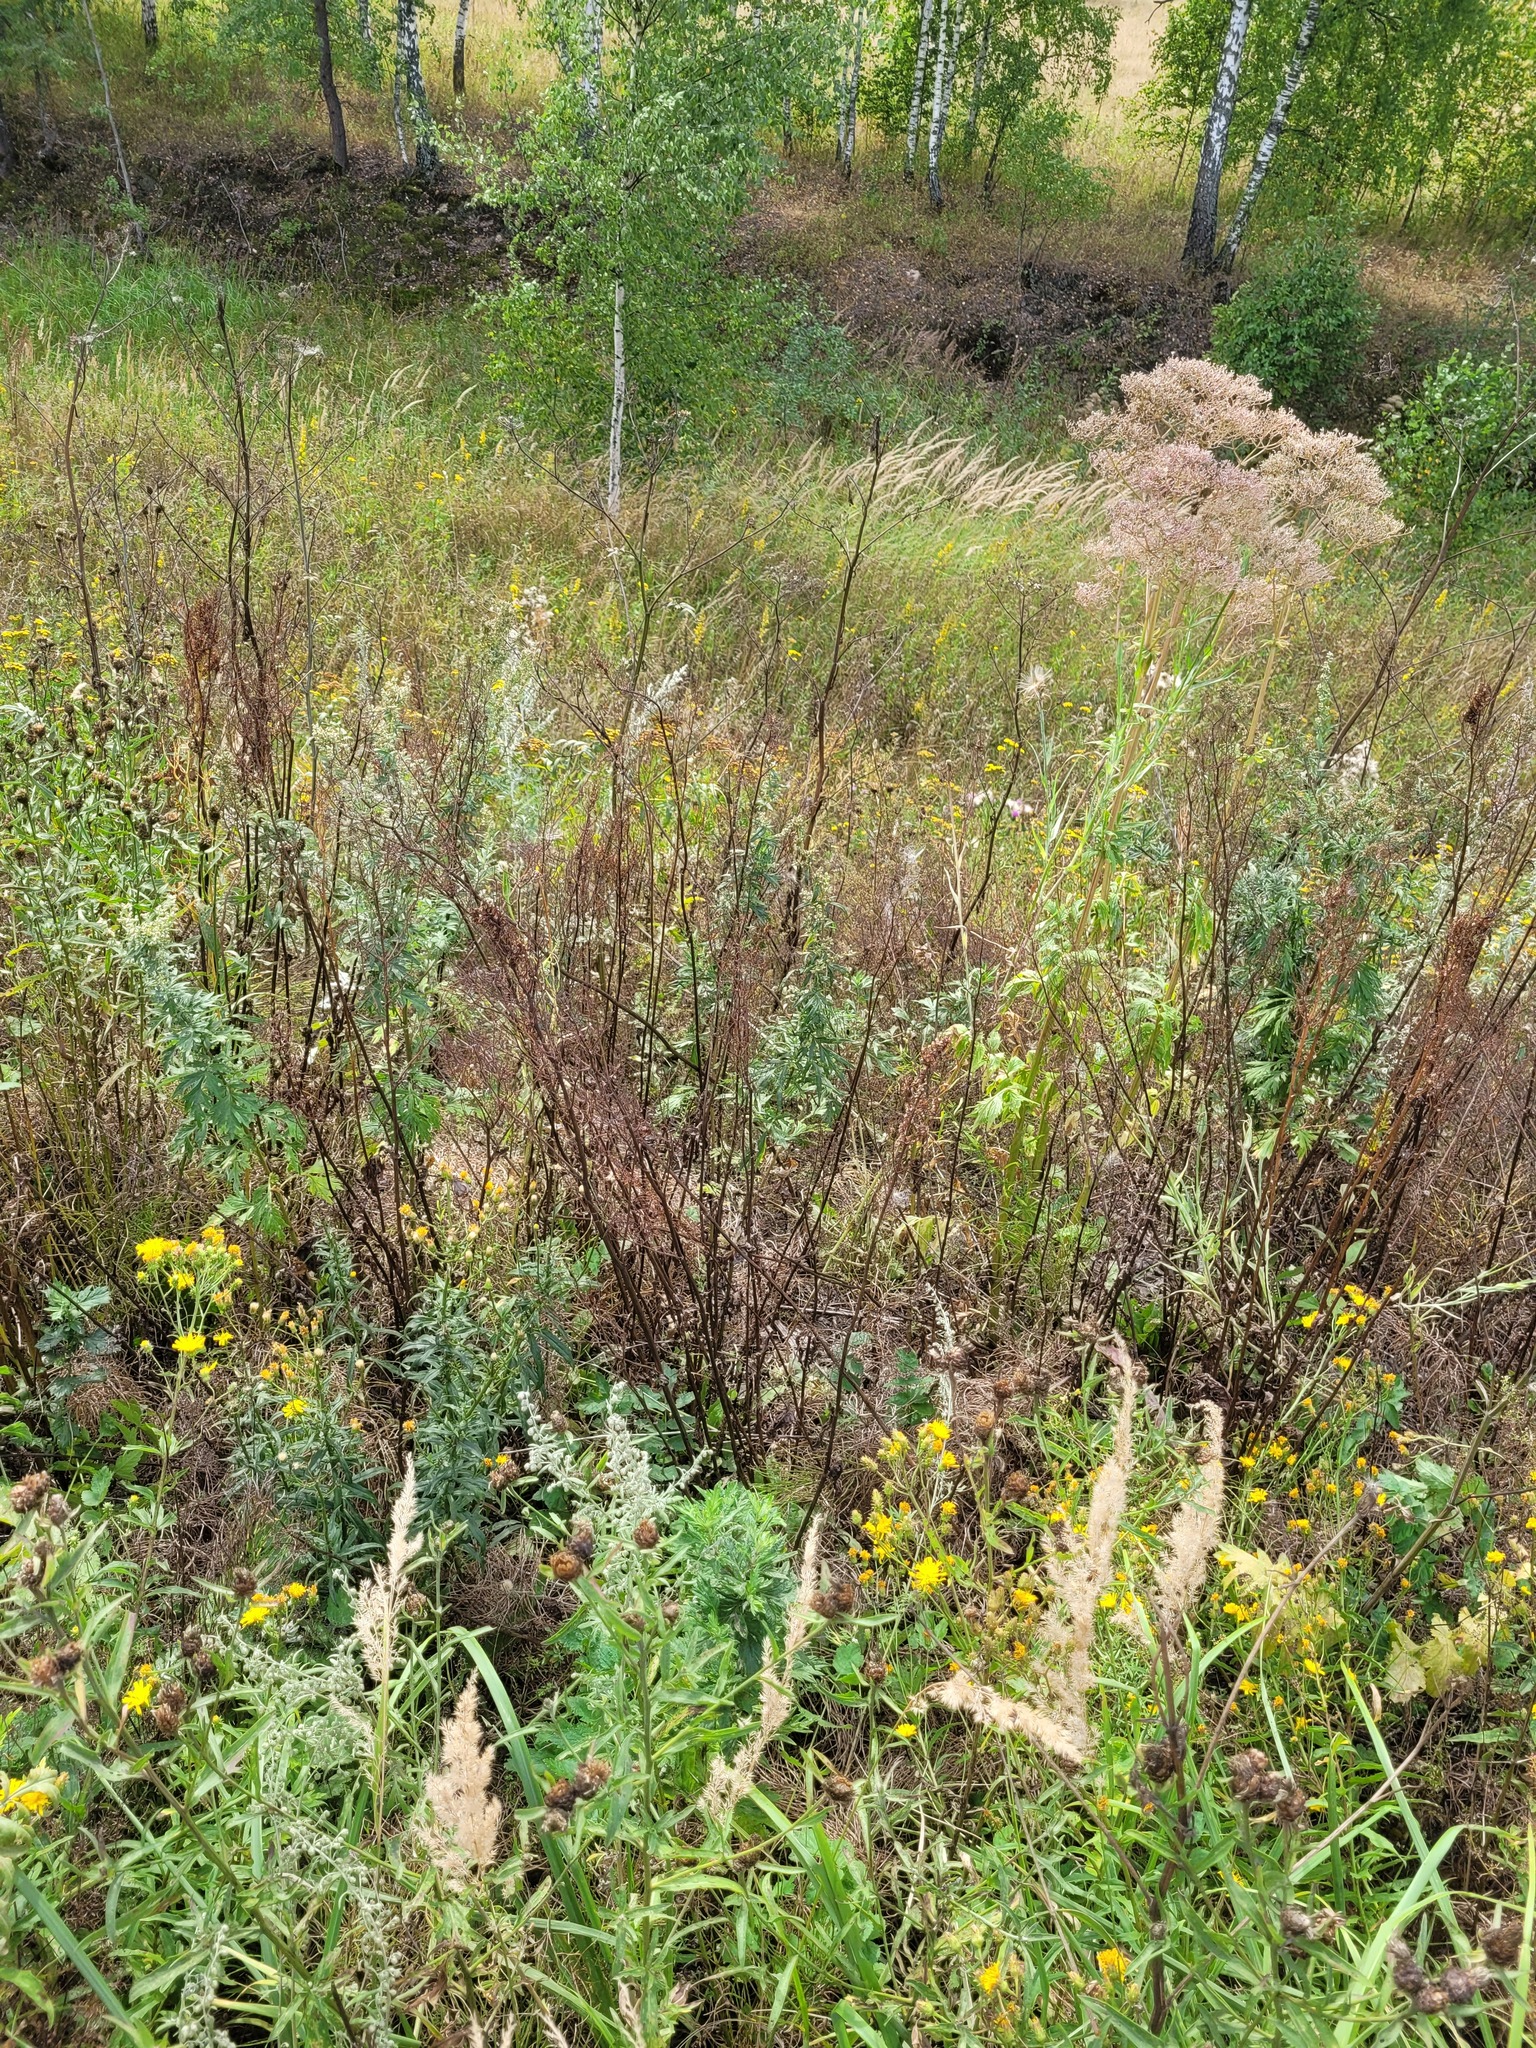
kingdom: Plantae
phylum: Tracheophyta
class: Magnoliopsida
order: Caryophyllales
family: Polygonaceae
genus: Rumex
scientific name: Rumex thyrsiflorus
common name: Garden sorrel
